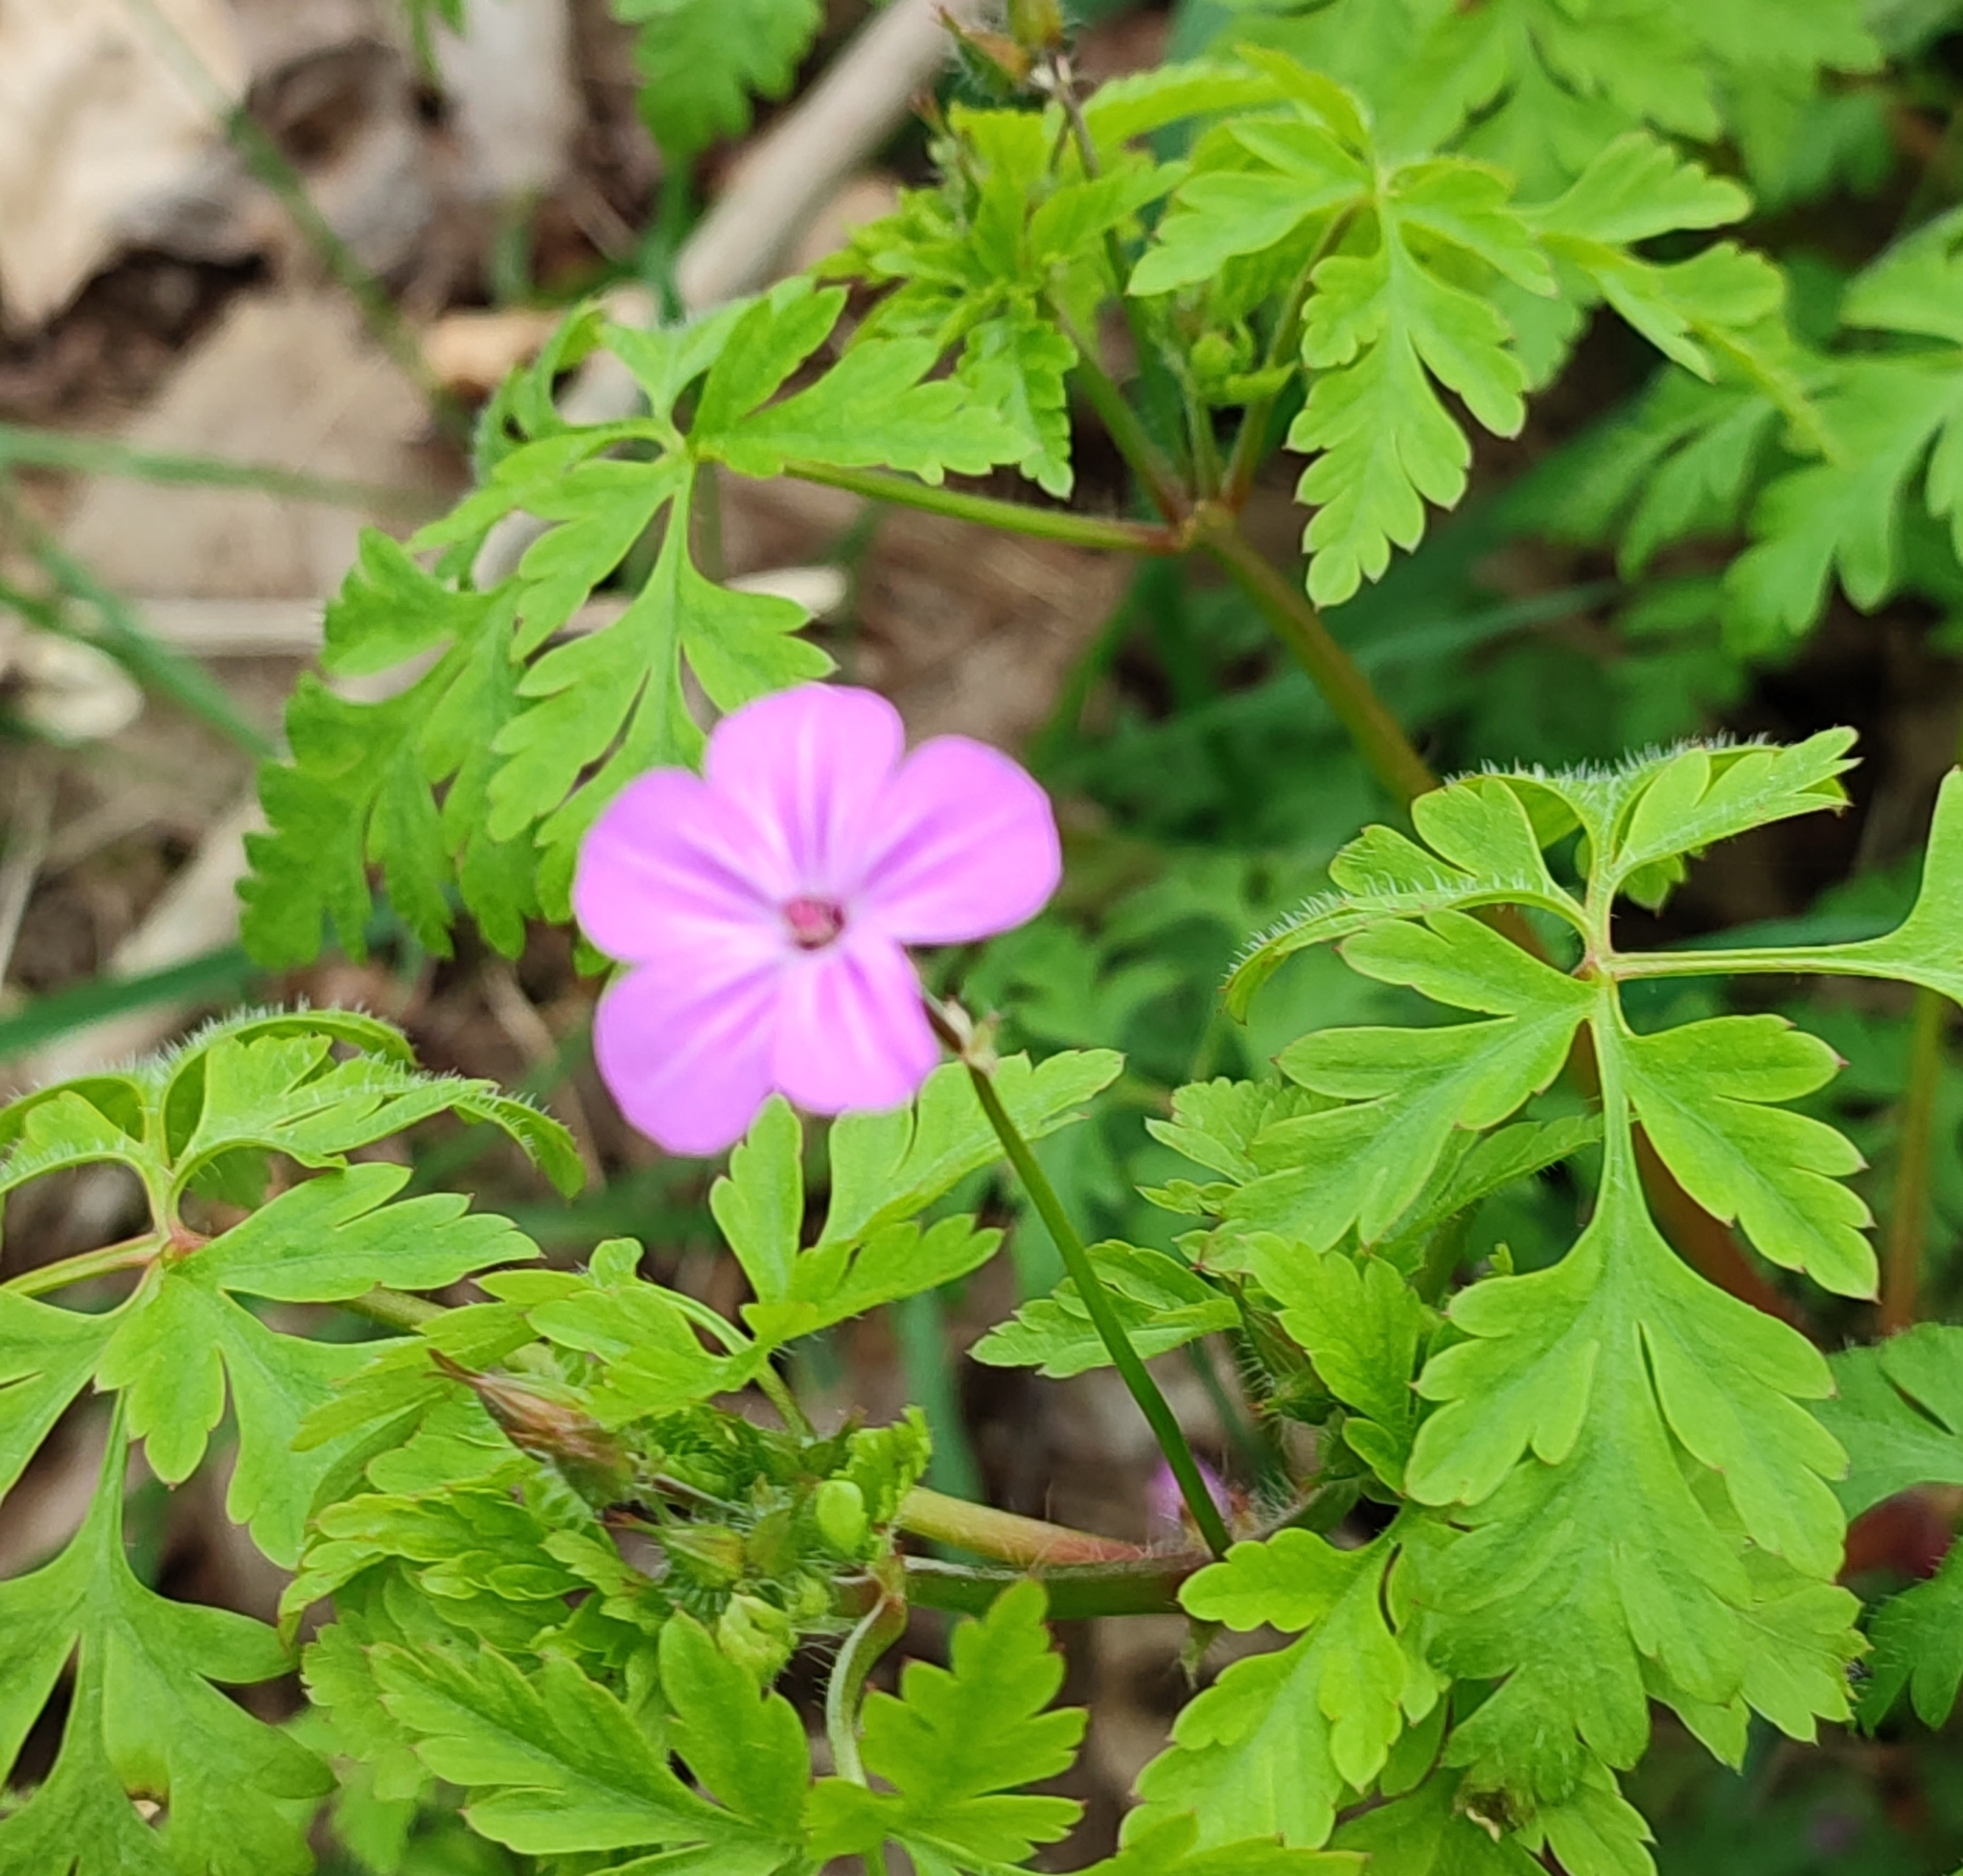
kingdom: Plantae
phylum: Tracheophyta
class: Magnoliopsida
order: Geraniales
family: Geraniaceae
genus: Geranium
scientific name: Geranium robertianum
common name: Herb-robert
